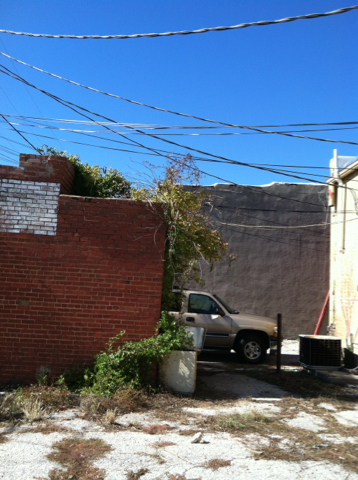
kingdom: Plantae
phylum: Tracheophyta
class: Magnoliopsida
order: Lamiales
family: Bignoniaceae
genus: Campsis
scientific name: Campsis radicans
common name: Trumpet-creeper
